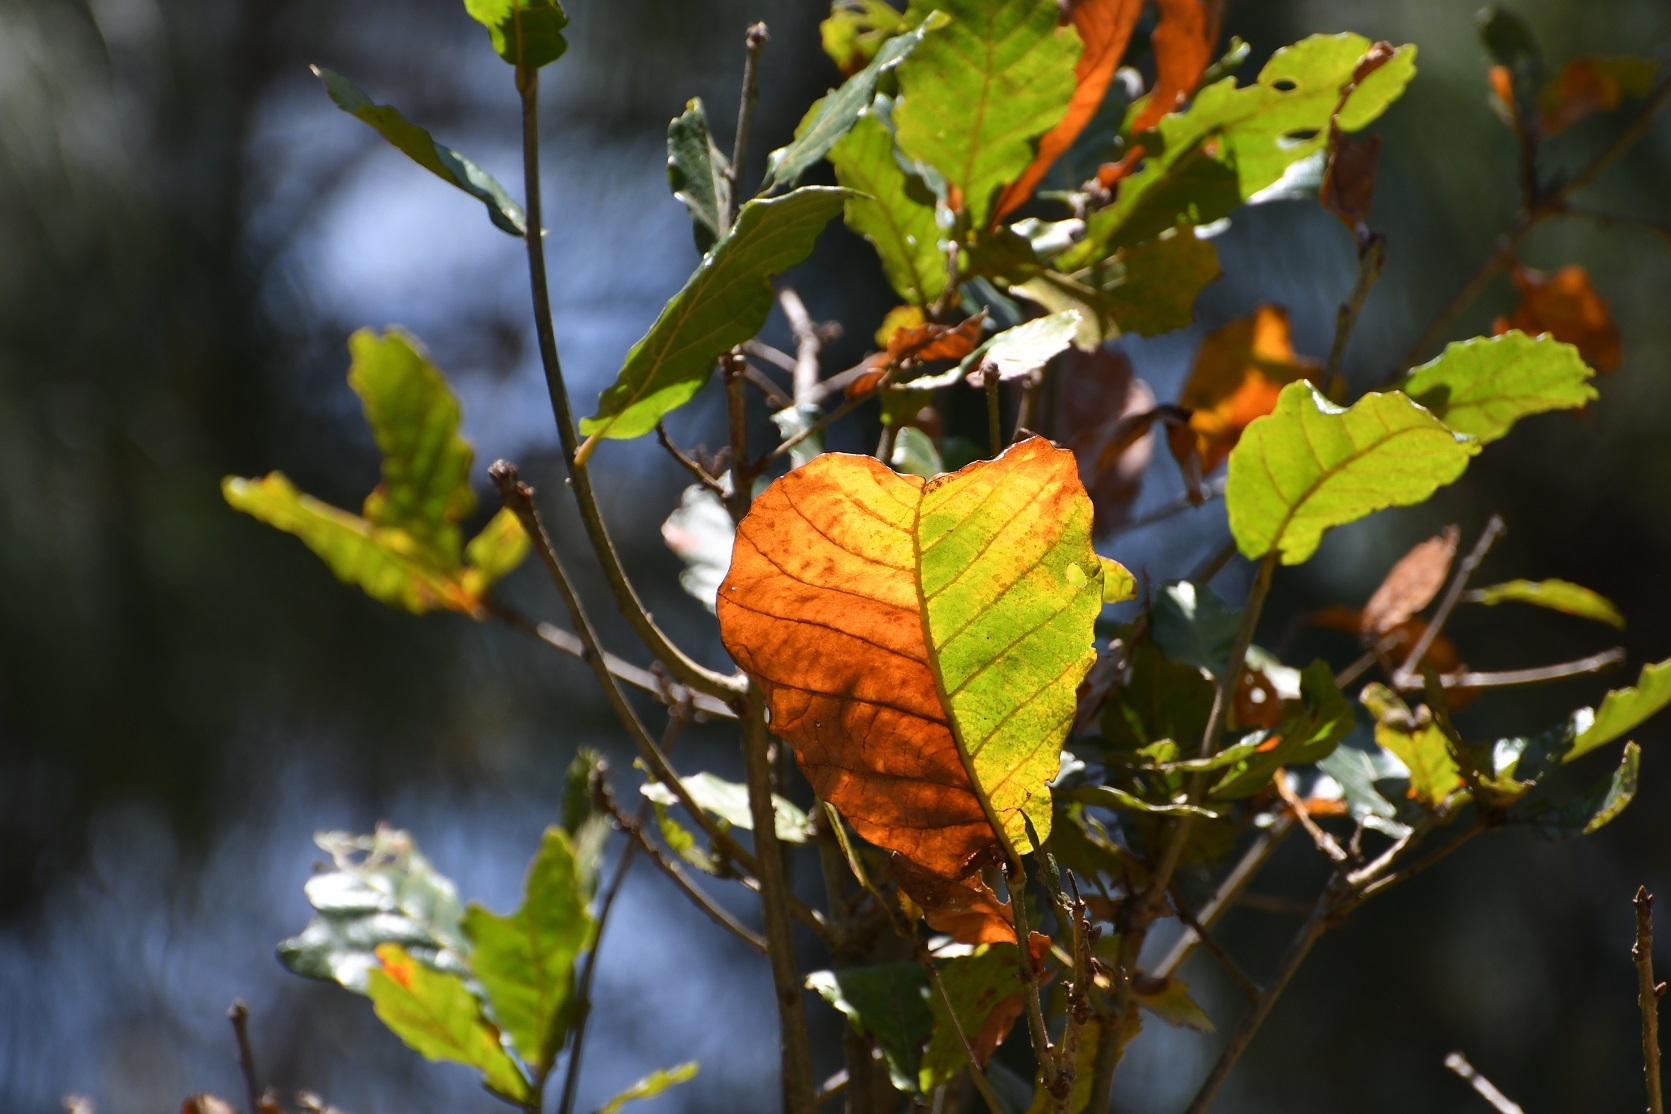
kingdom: Plantae
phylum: Tracheophyta
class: Magnoliopsida
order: Fagales
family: Fagaceae
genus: Quercus
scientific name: Quercus segoviensis
